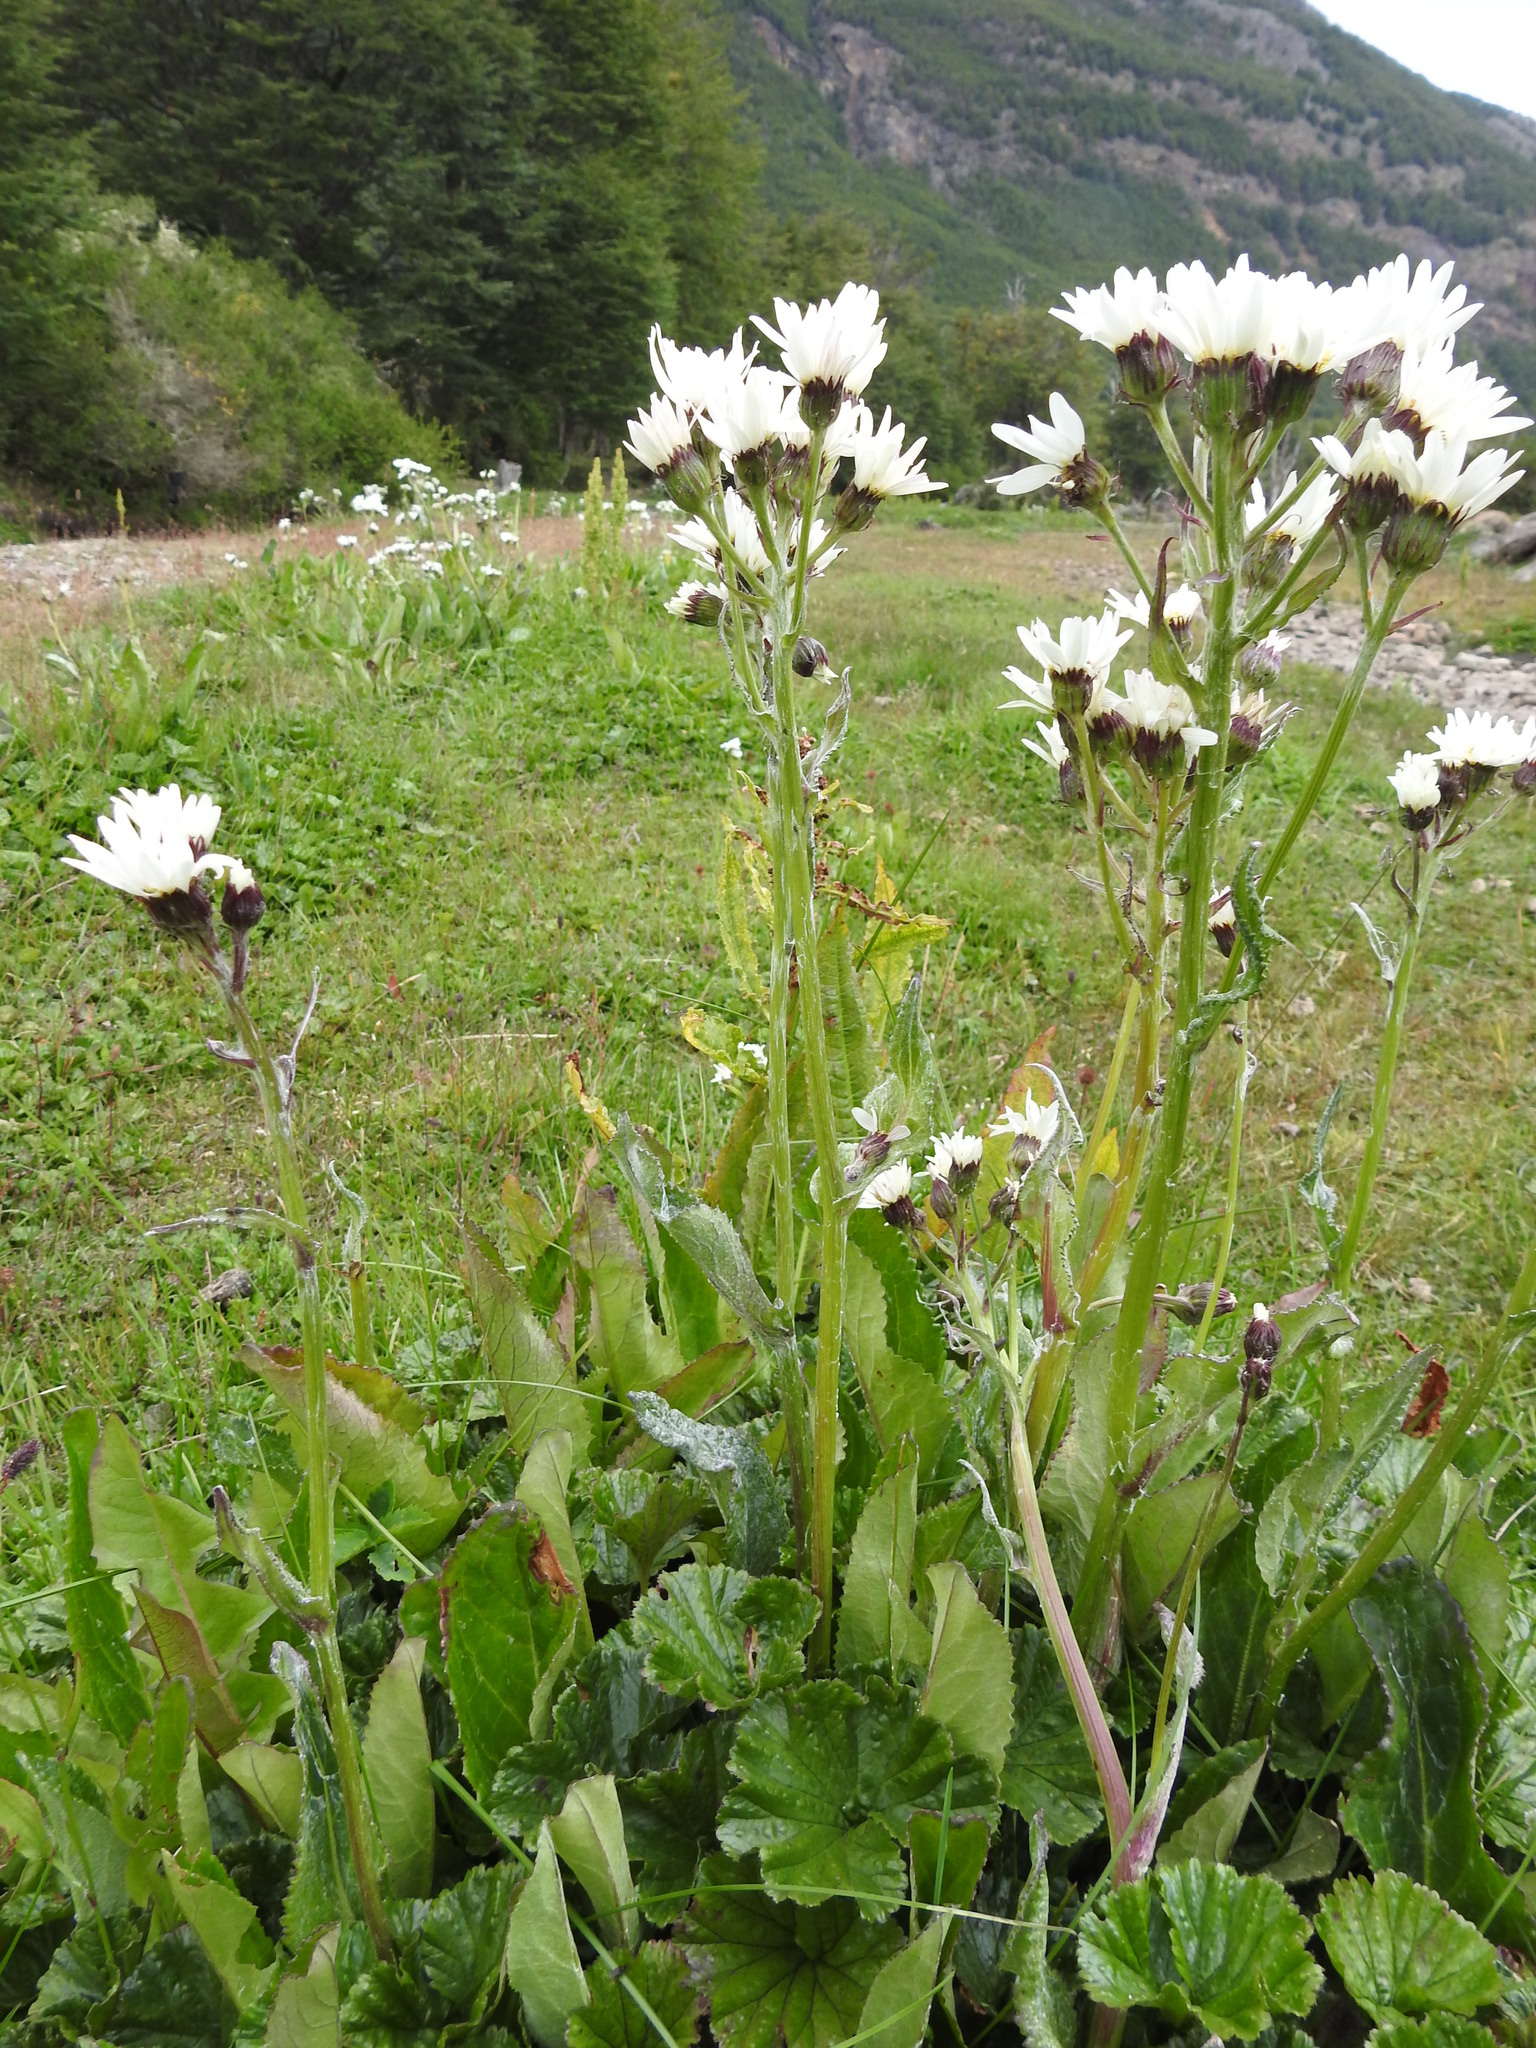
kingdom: Plantae
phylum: Tracheophyta
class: Magnoliopsida
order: Asterales
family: Asteraceae
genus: Senecio
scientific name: Senecio smithii
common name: Magellan ragwort
